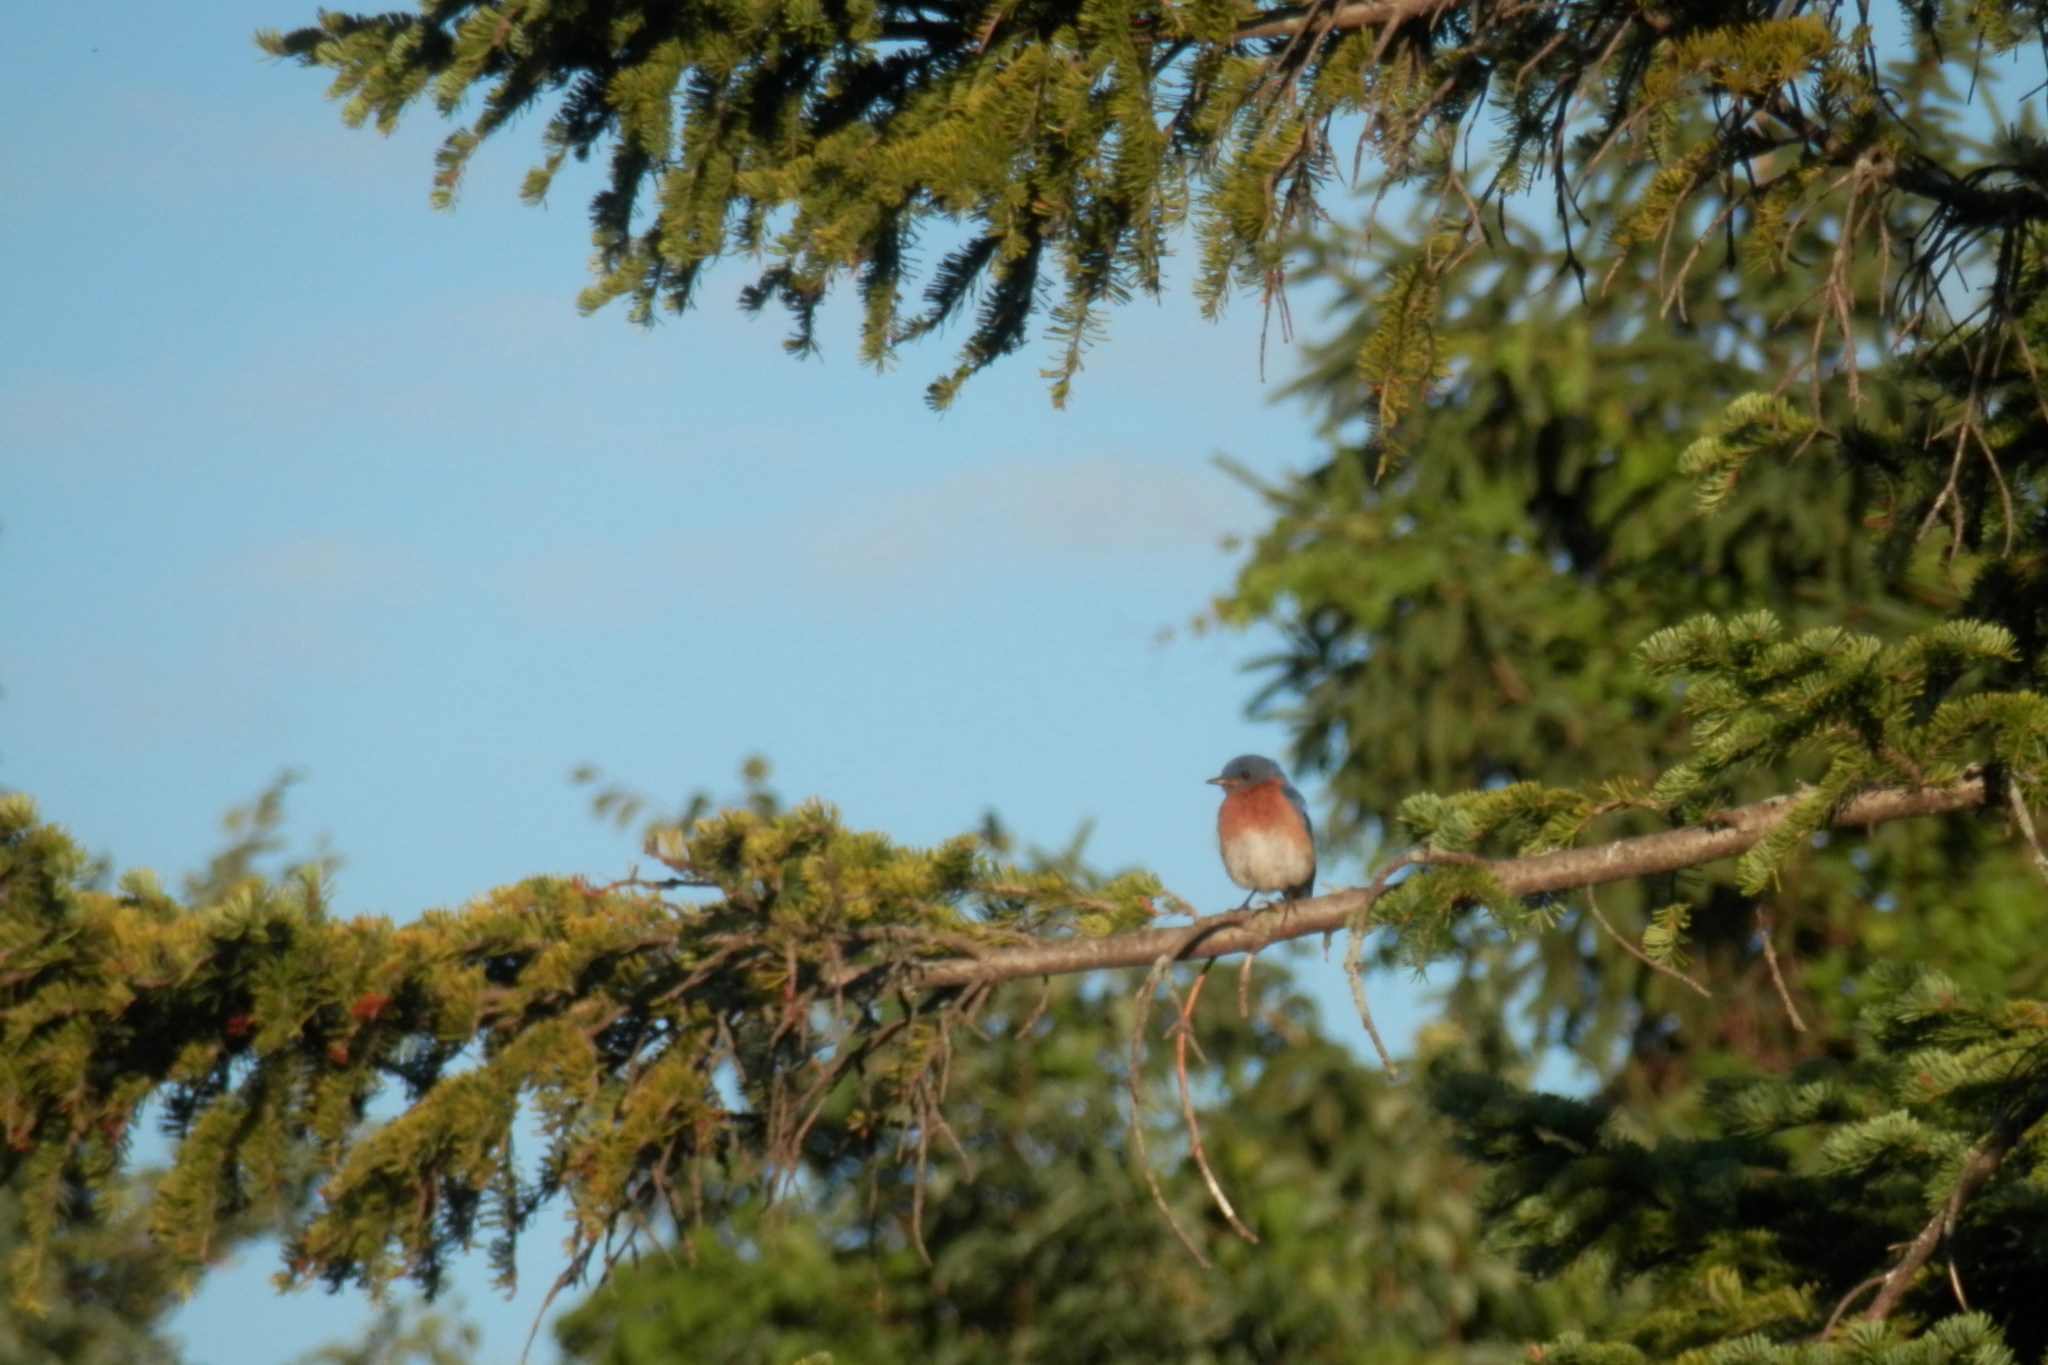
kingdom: Animalia
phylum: Chordata
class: Aves
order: Passeriformes
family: Turdidae
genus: Sialia
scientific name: Sialia sialis
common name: Eastern bluebird
